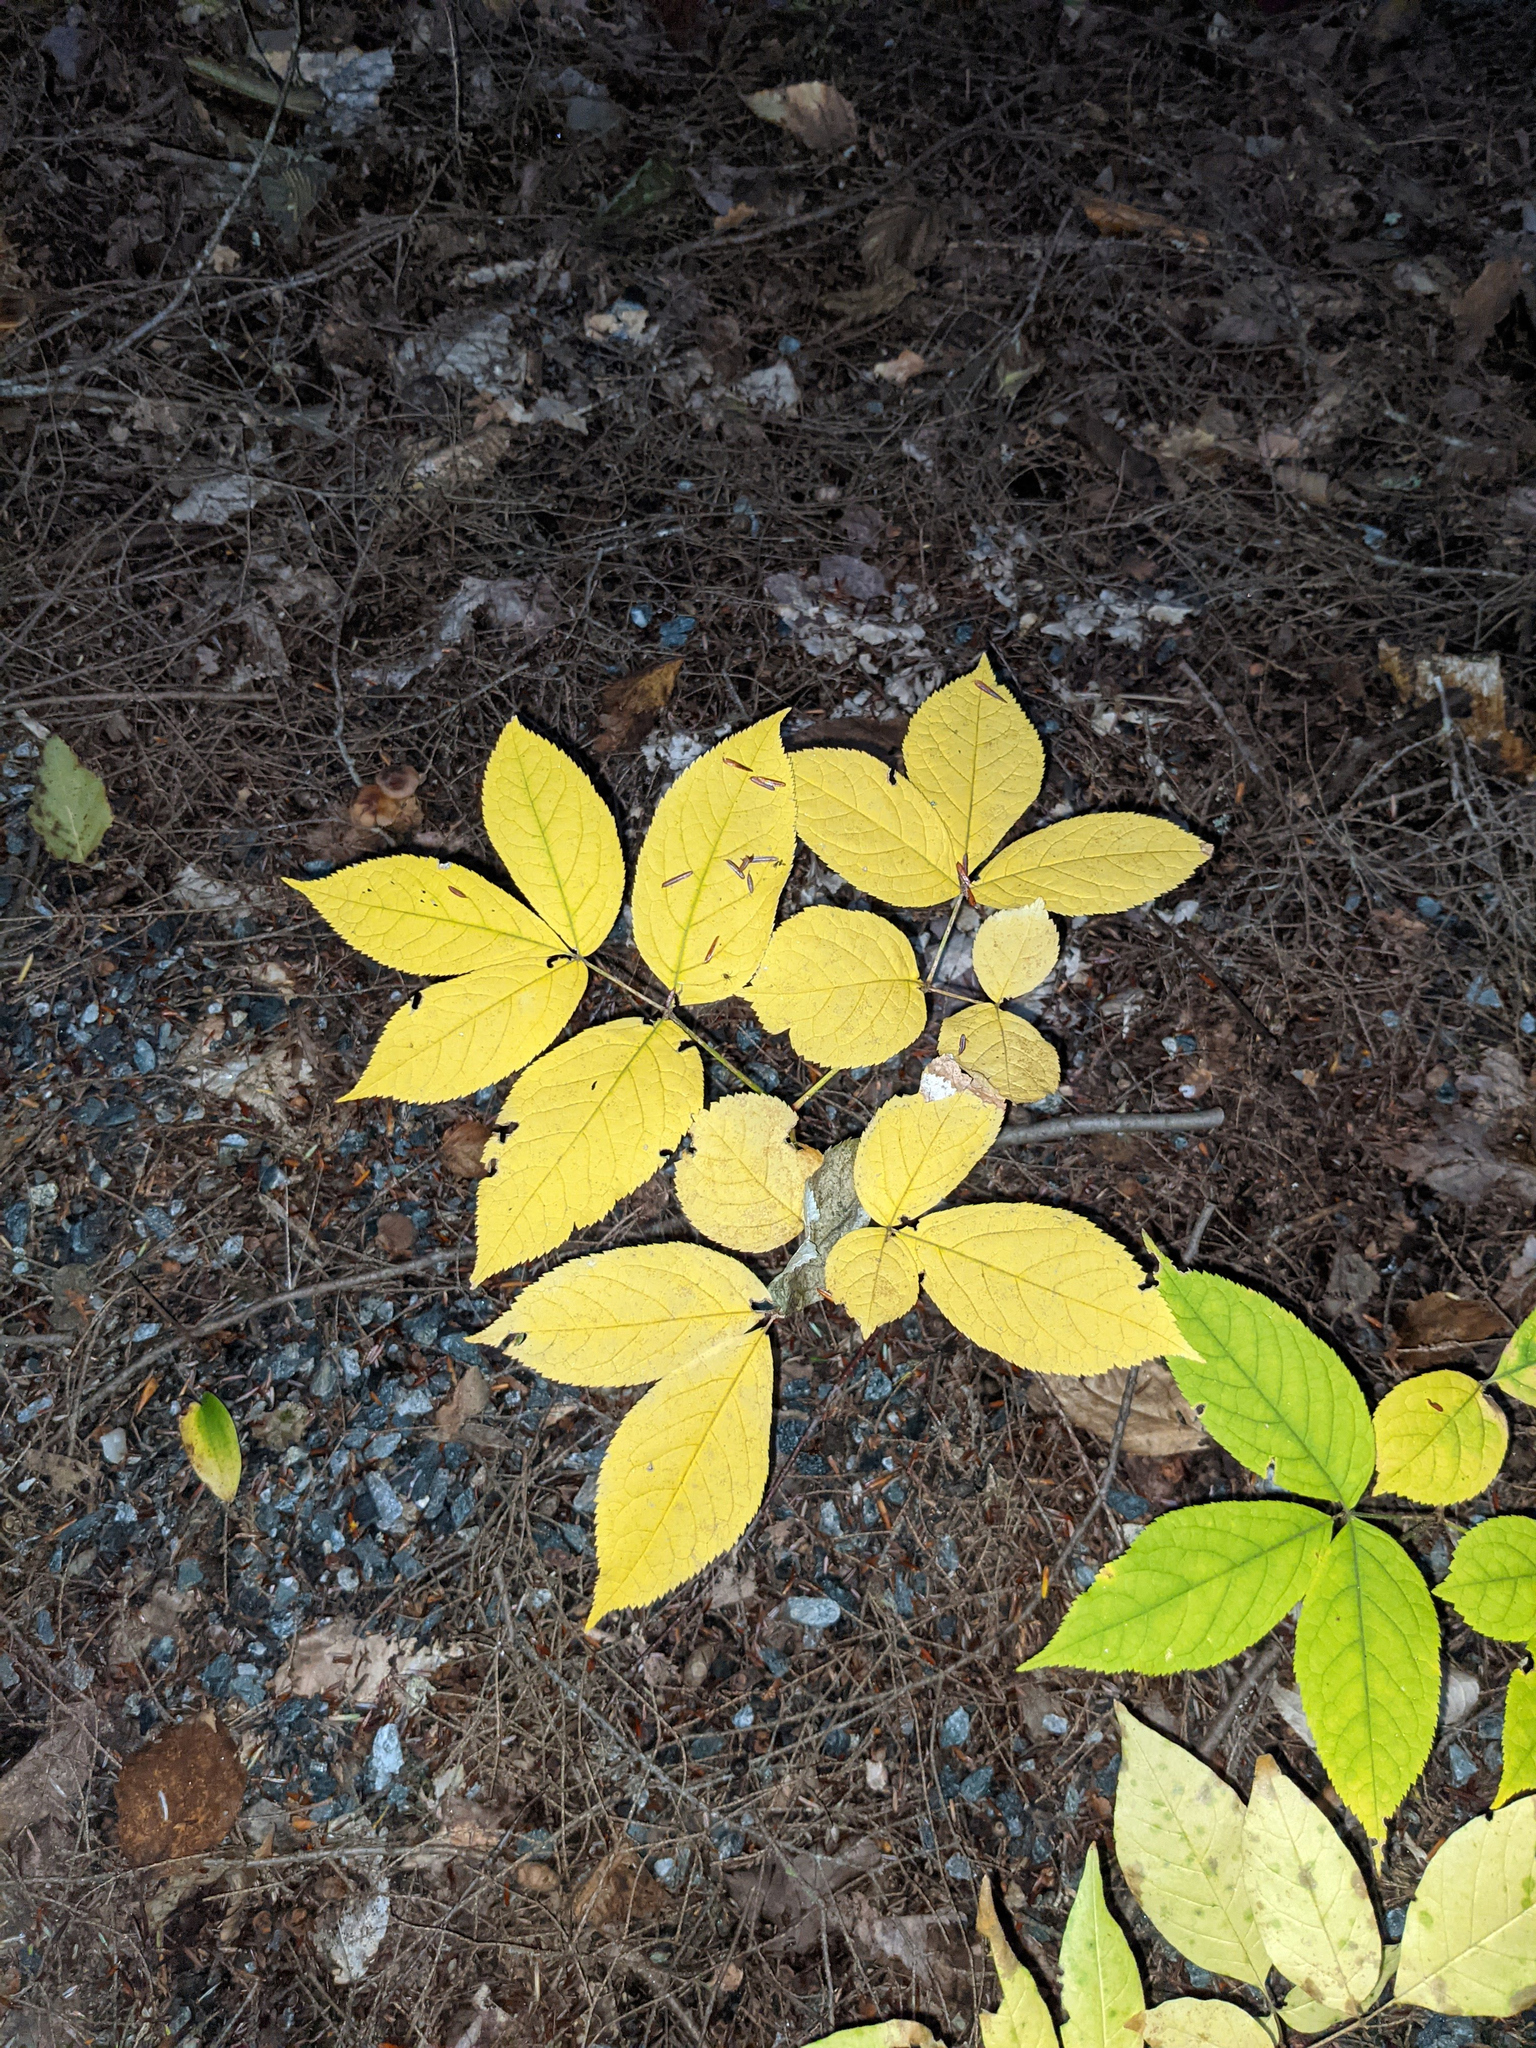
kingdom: Plantae
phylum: Tracheophyta
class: Magnoliopsida
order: Apiales
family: Araliaceae
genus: Aralia
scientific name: Aralia nudicaulis
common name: Wild sarsaparilla
